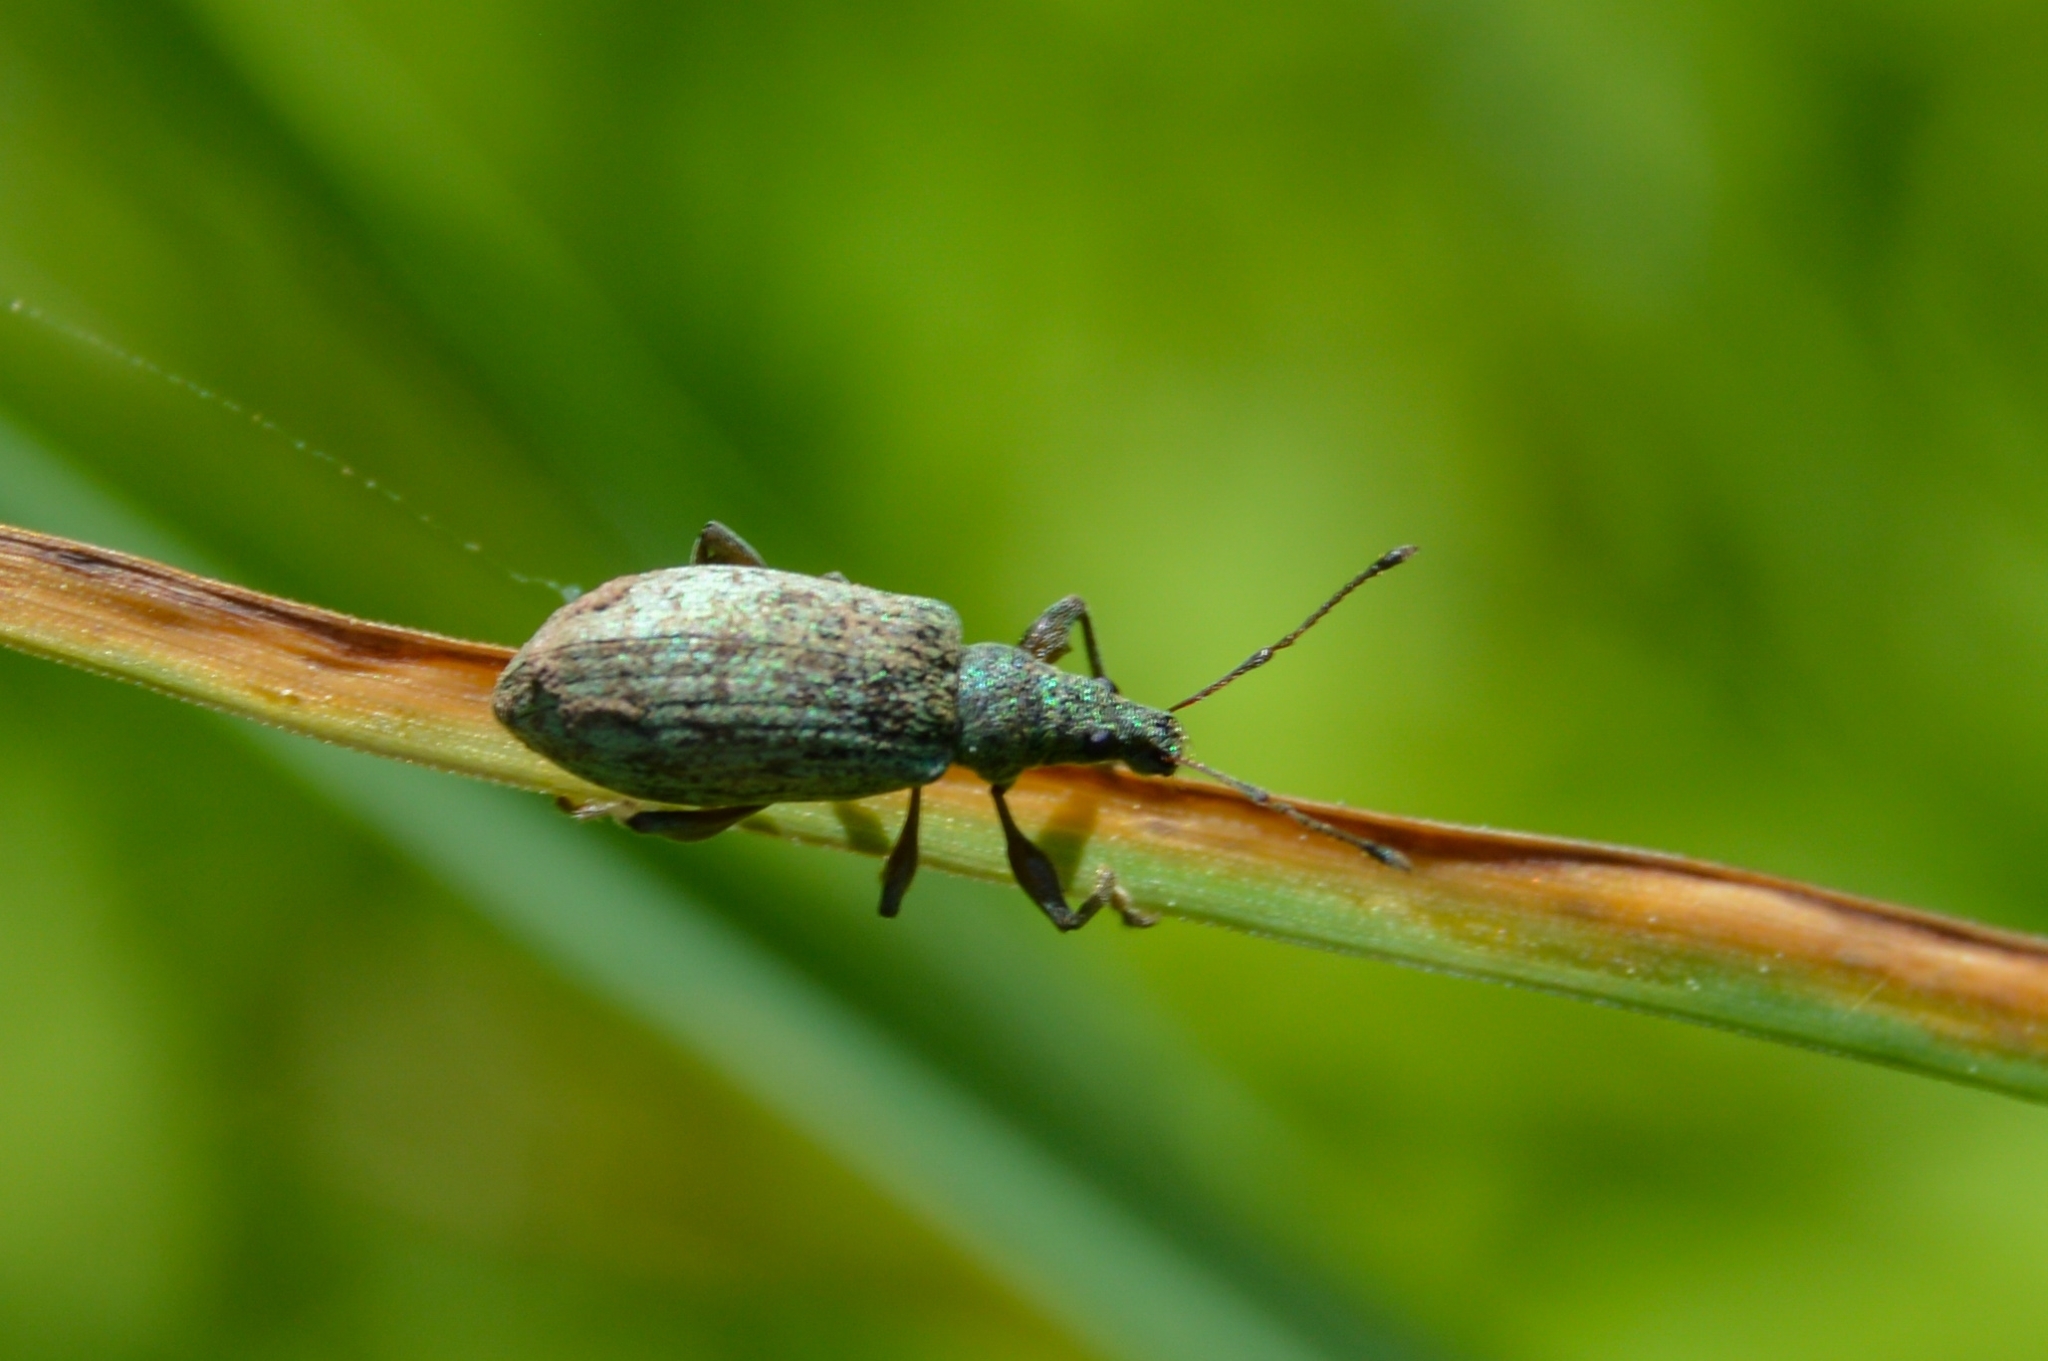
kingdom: Animalia
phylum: Arthropoda
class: Insecta
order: Coleoptera
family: Curculionidae
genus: Phyllobius
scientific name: Phyllobius pomaceus
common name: Green nettle weevil
